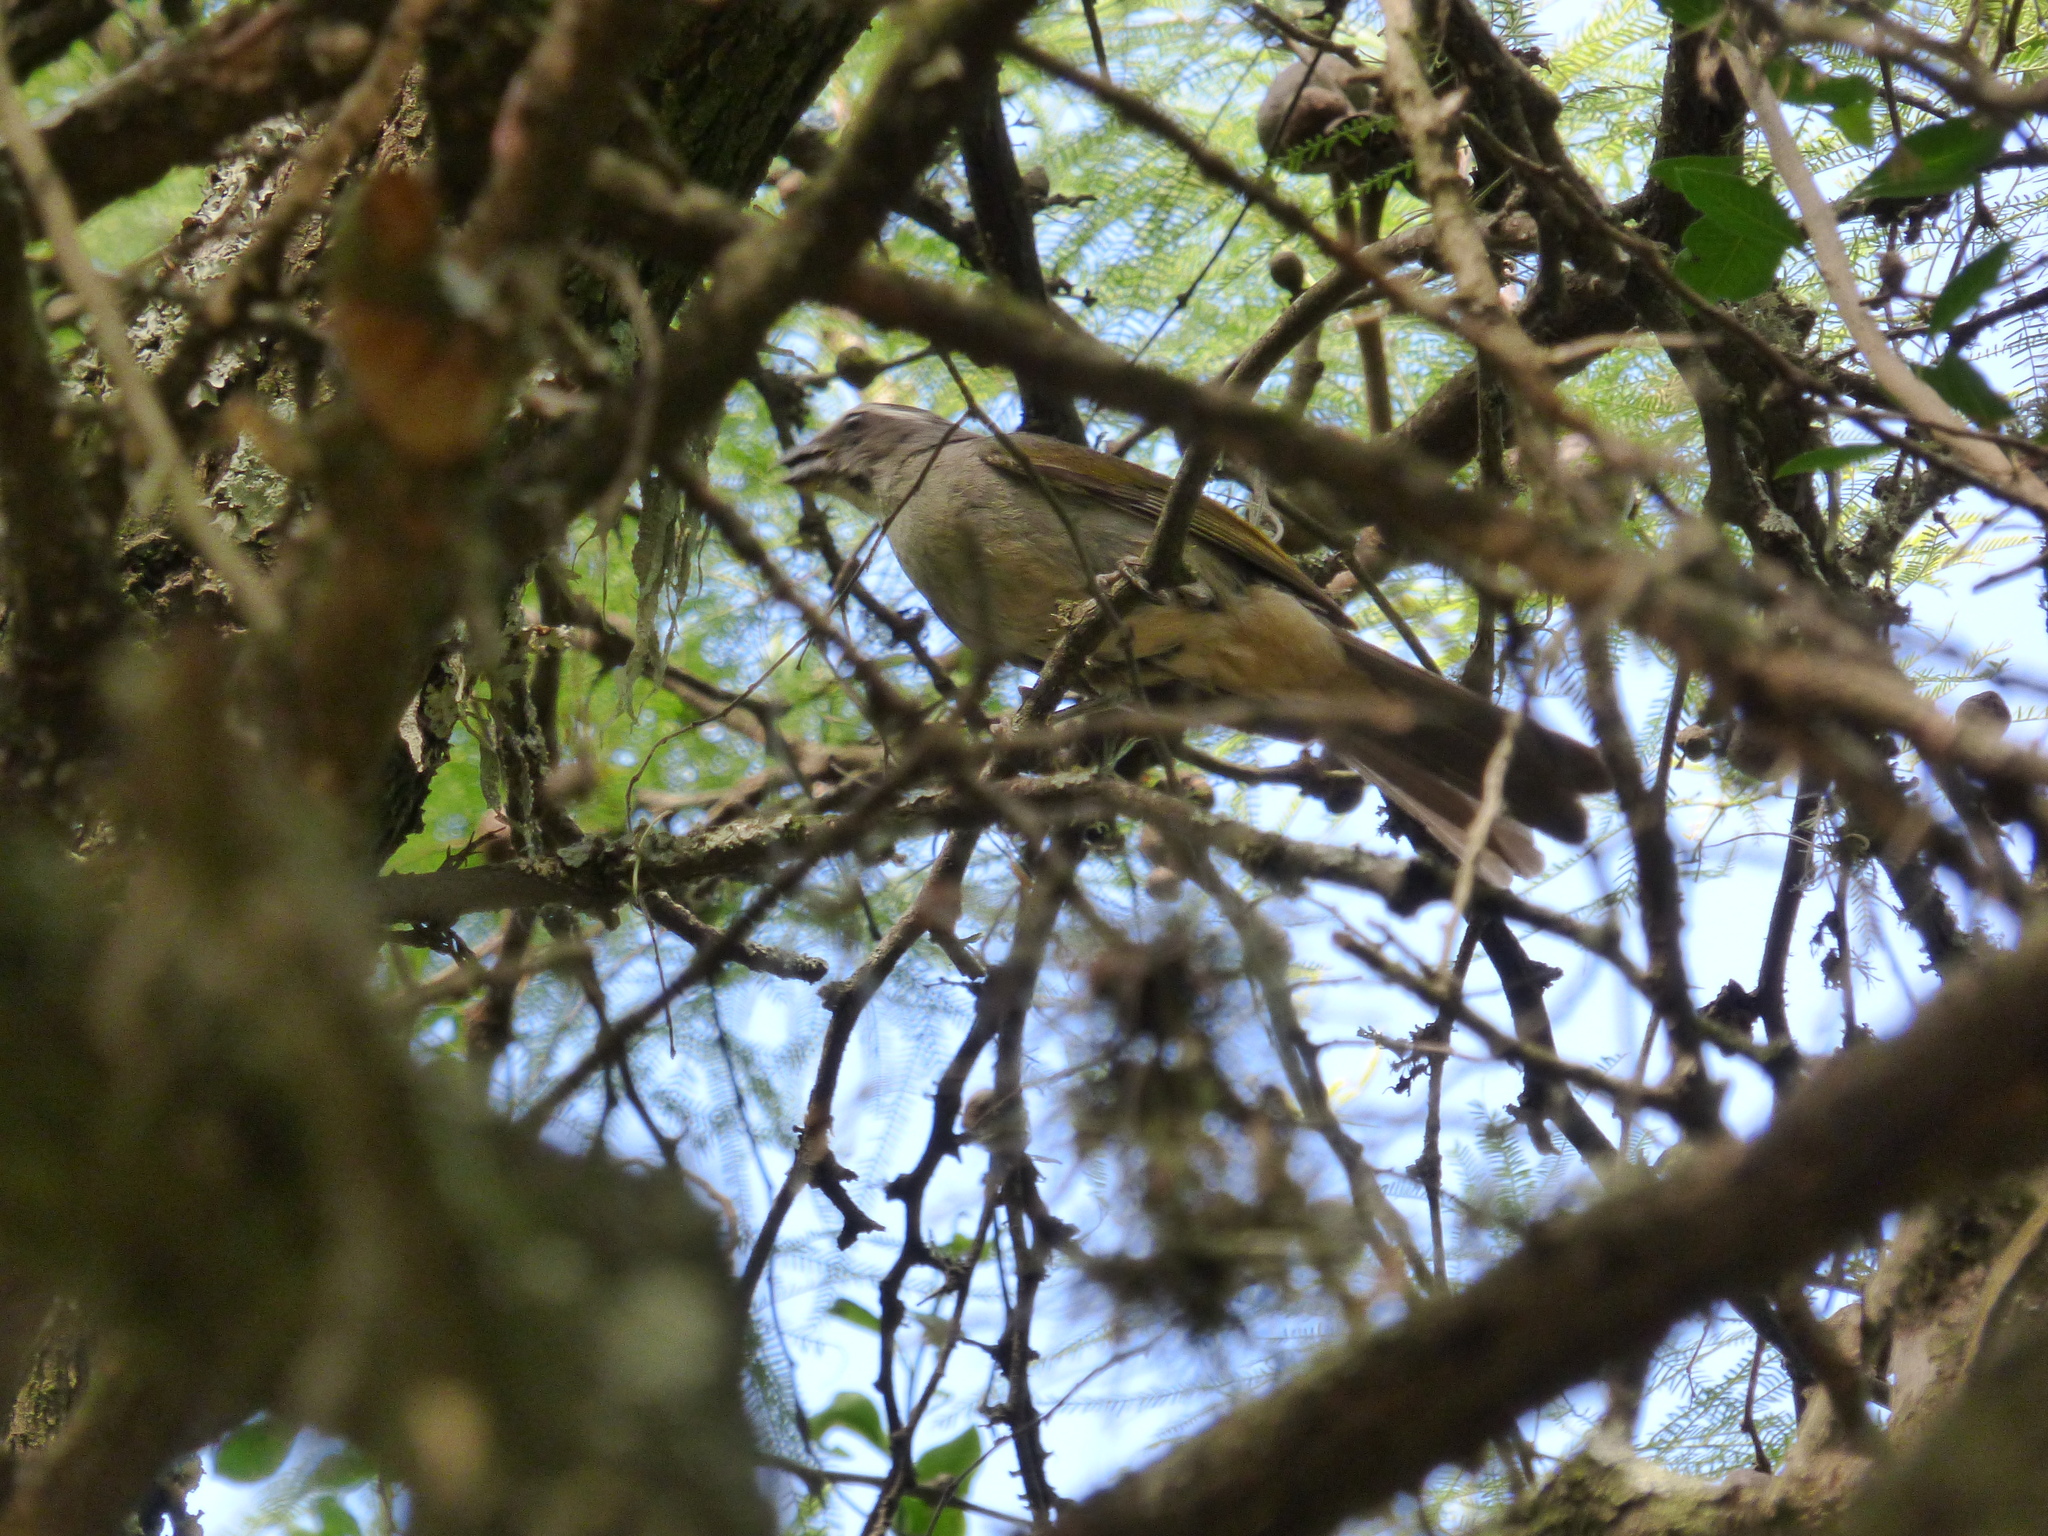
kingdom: Animalia
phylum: Chordata
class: Aves
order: Passeriformes
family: Thraupidae
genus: Saltator
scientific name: Saltator similis
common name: Green-winged saltator
